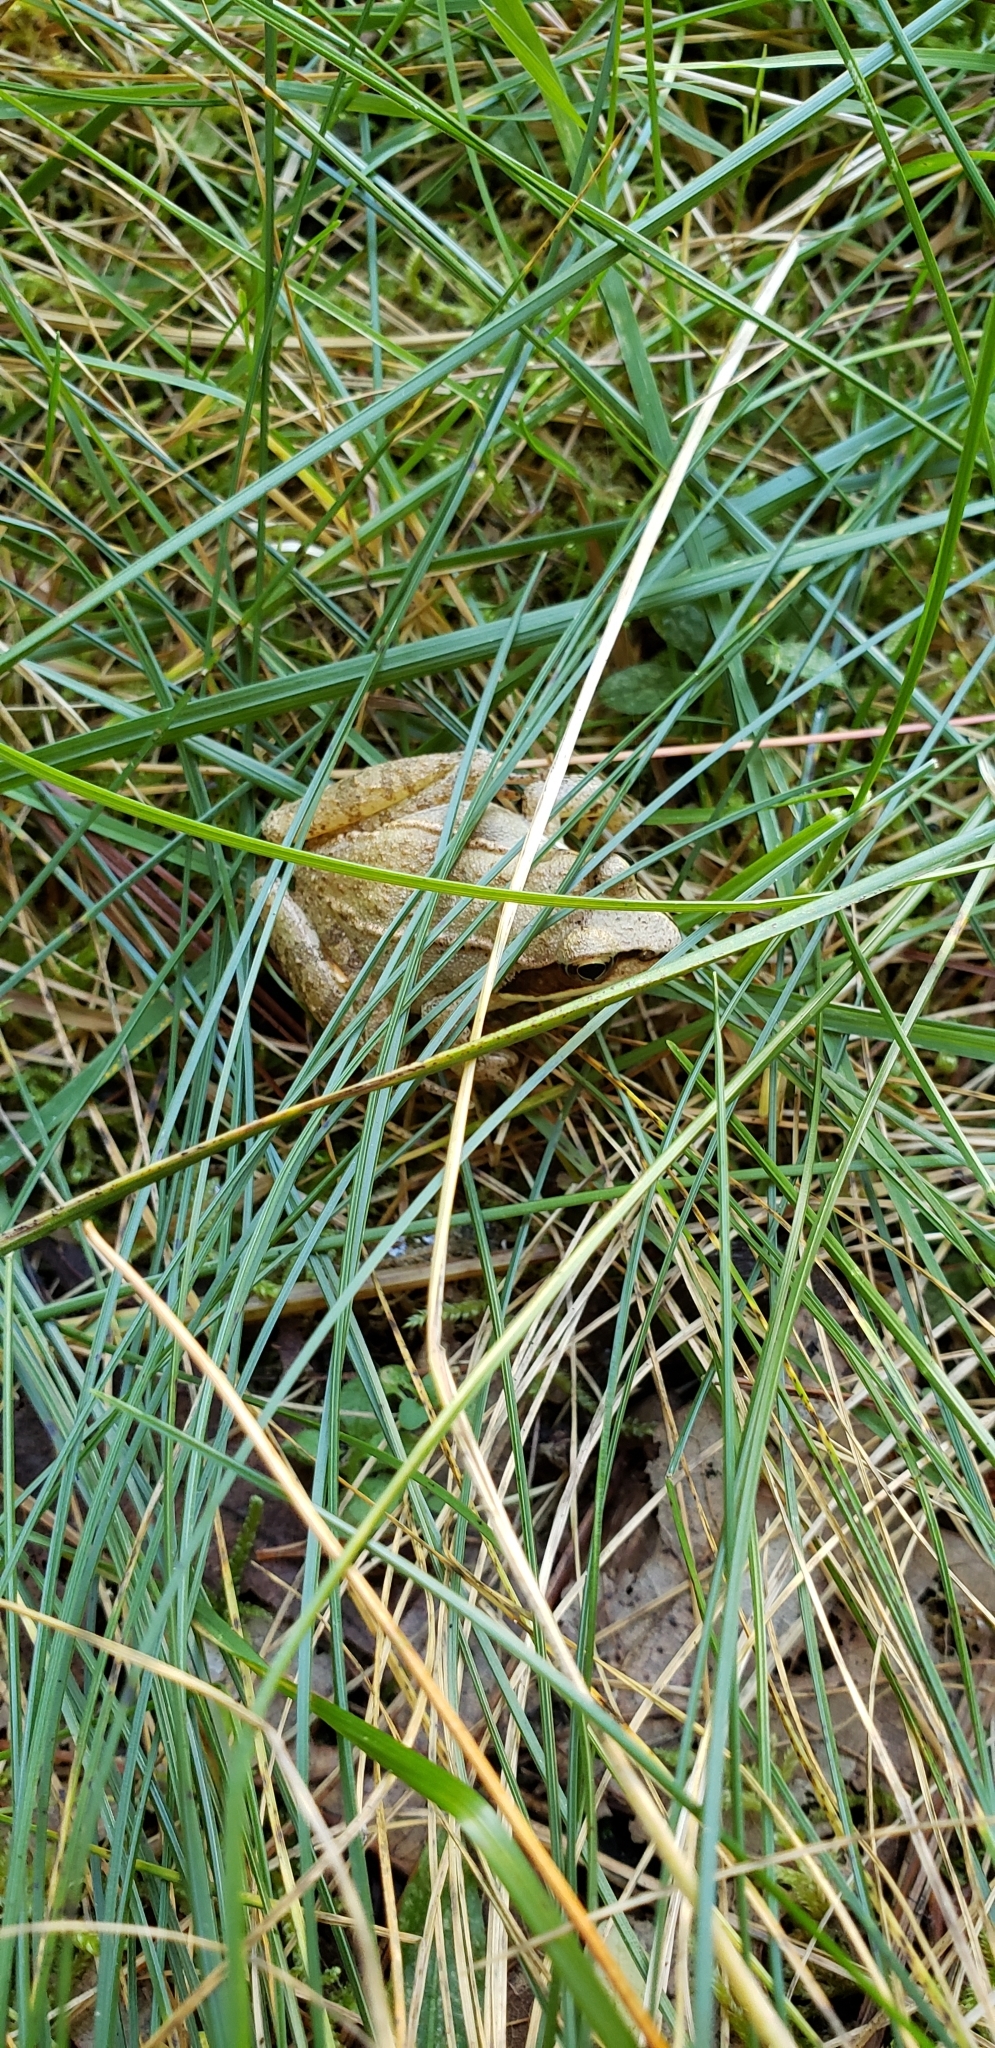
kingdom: Animalia
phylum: Chordata
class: Amphibia
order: Anura
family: Ranidae
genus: Lithobates
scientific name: Lithobates sylvaticus
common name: Wood frog
